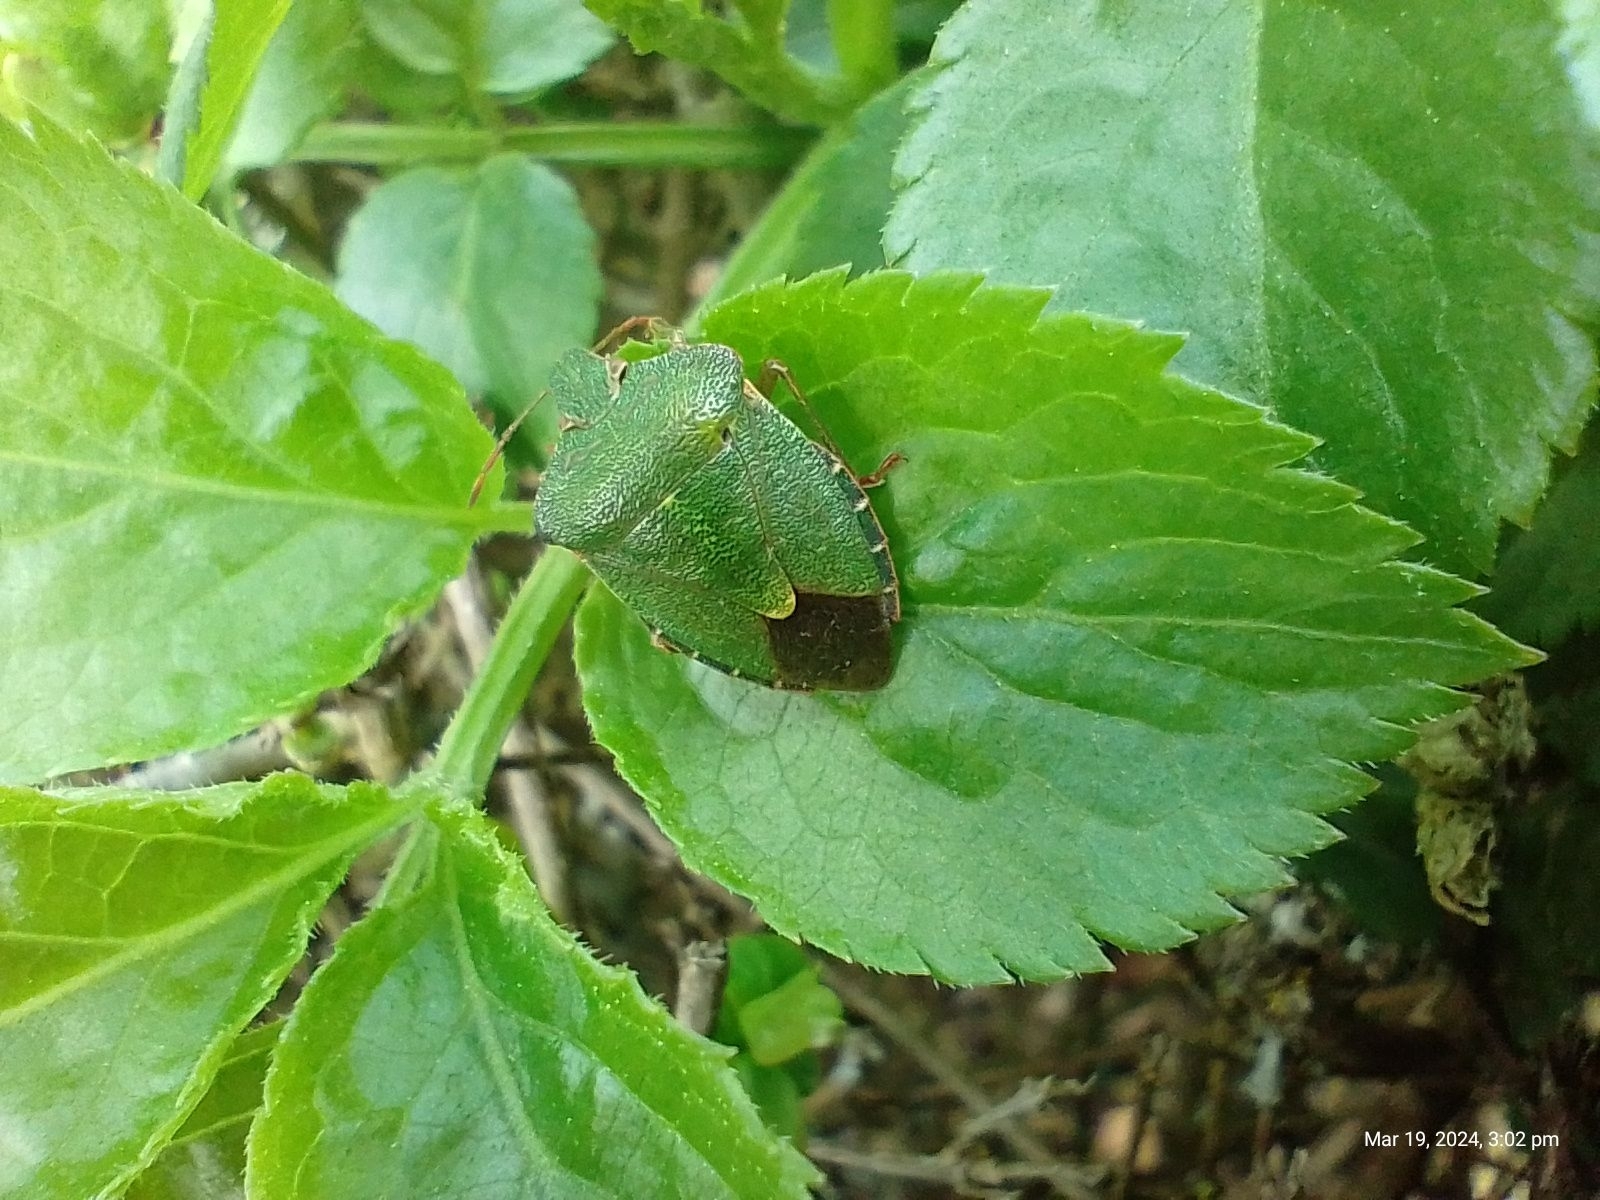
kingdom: Animalia
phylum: Arthropoda
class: Insecta
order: Hemiptera
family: Pentatomidae
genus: Palomena
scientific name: Palomena prasina
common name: Green shieldbug
